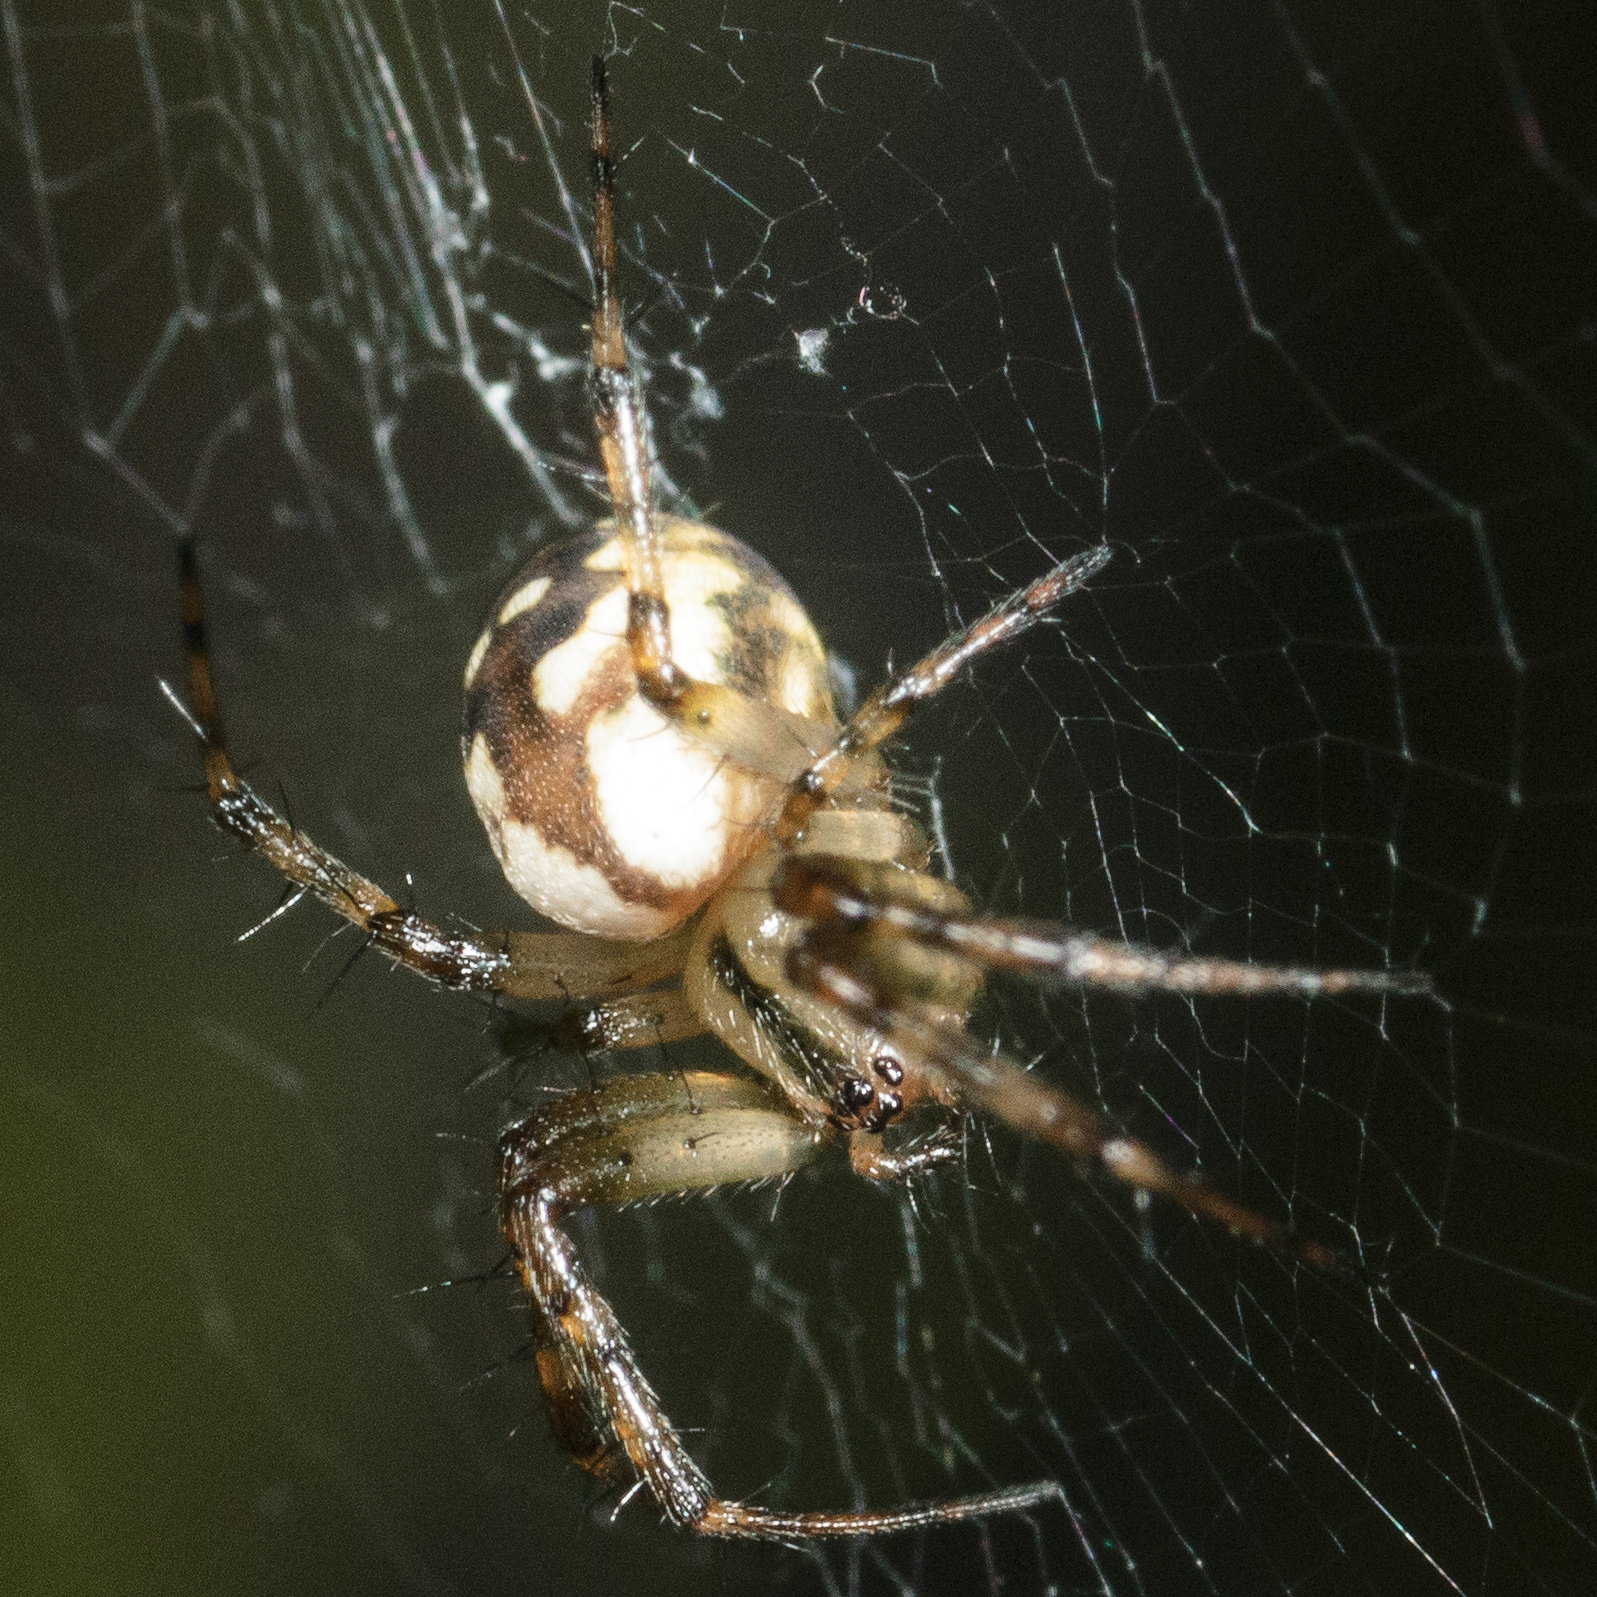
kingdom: Animalia
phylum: Arthropoda
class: Arachnida
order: Araneae
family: Araneidae
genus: Mangora
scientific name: Mangora placida
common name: Tuft-legged orbweaver
